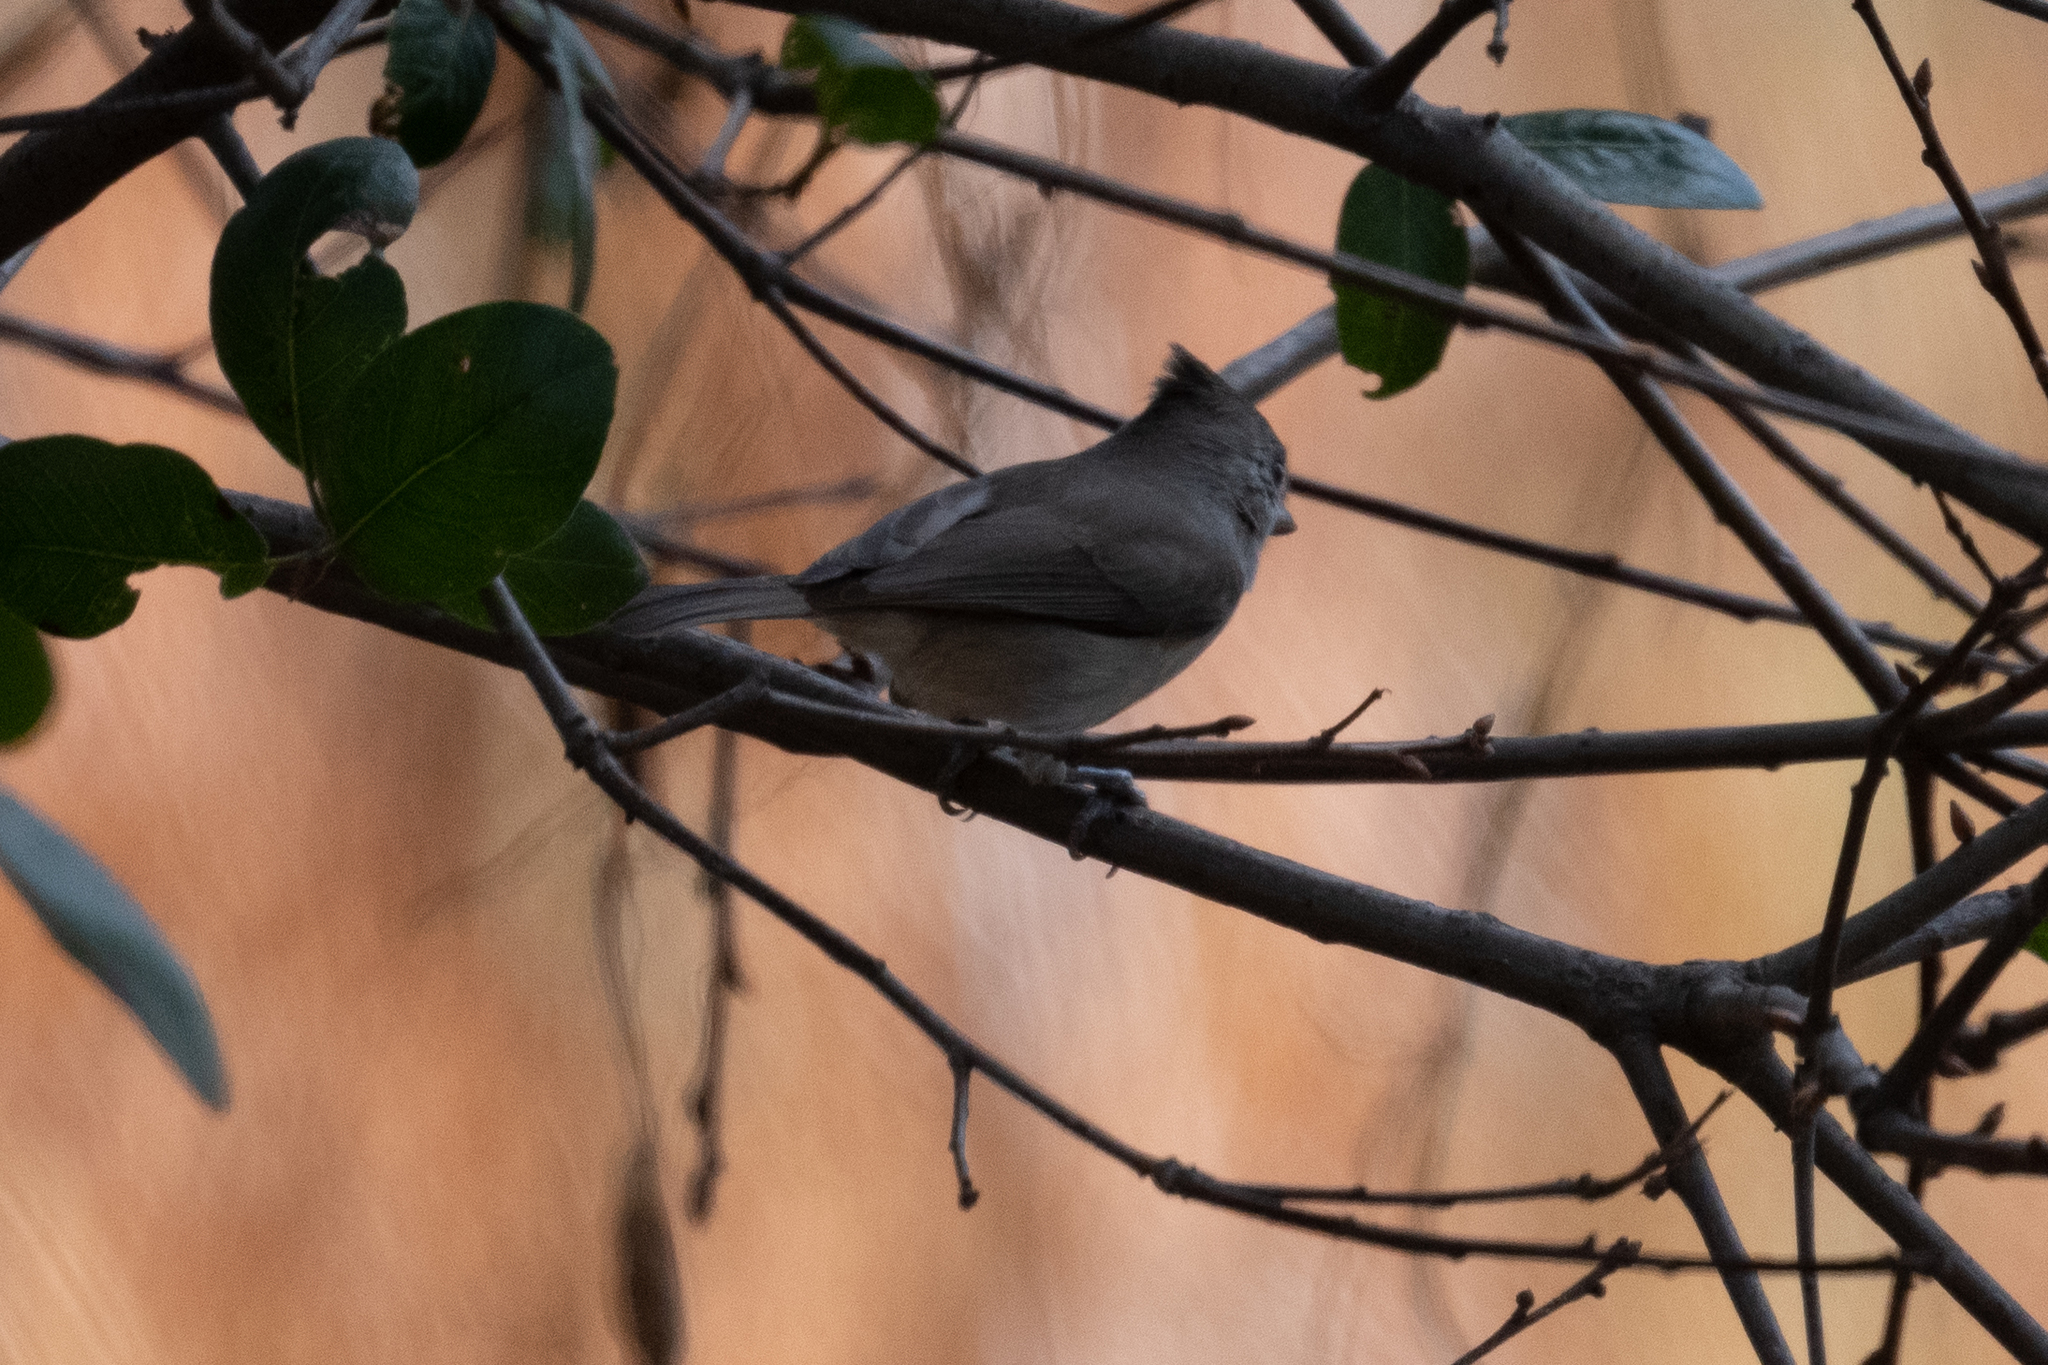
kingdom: Animalia
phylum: Chordata
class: Aves
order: Passeriformes
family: Paridae
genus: Baeolophus
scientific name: Baeolophus inornatus
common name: Oak titmouse
